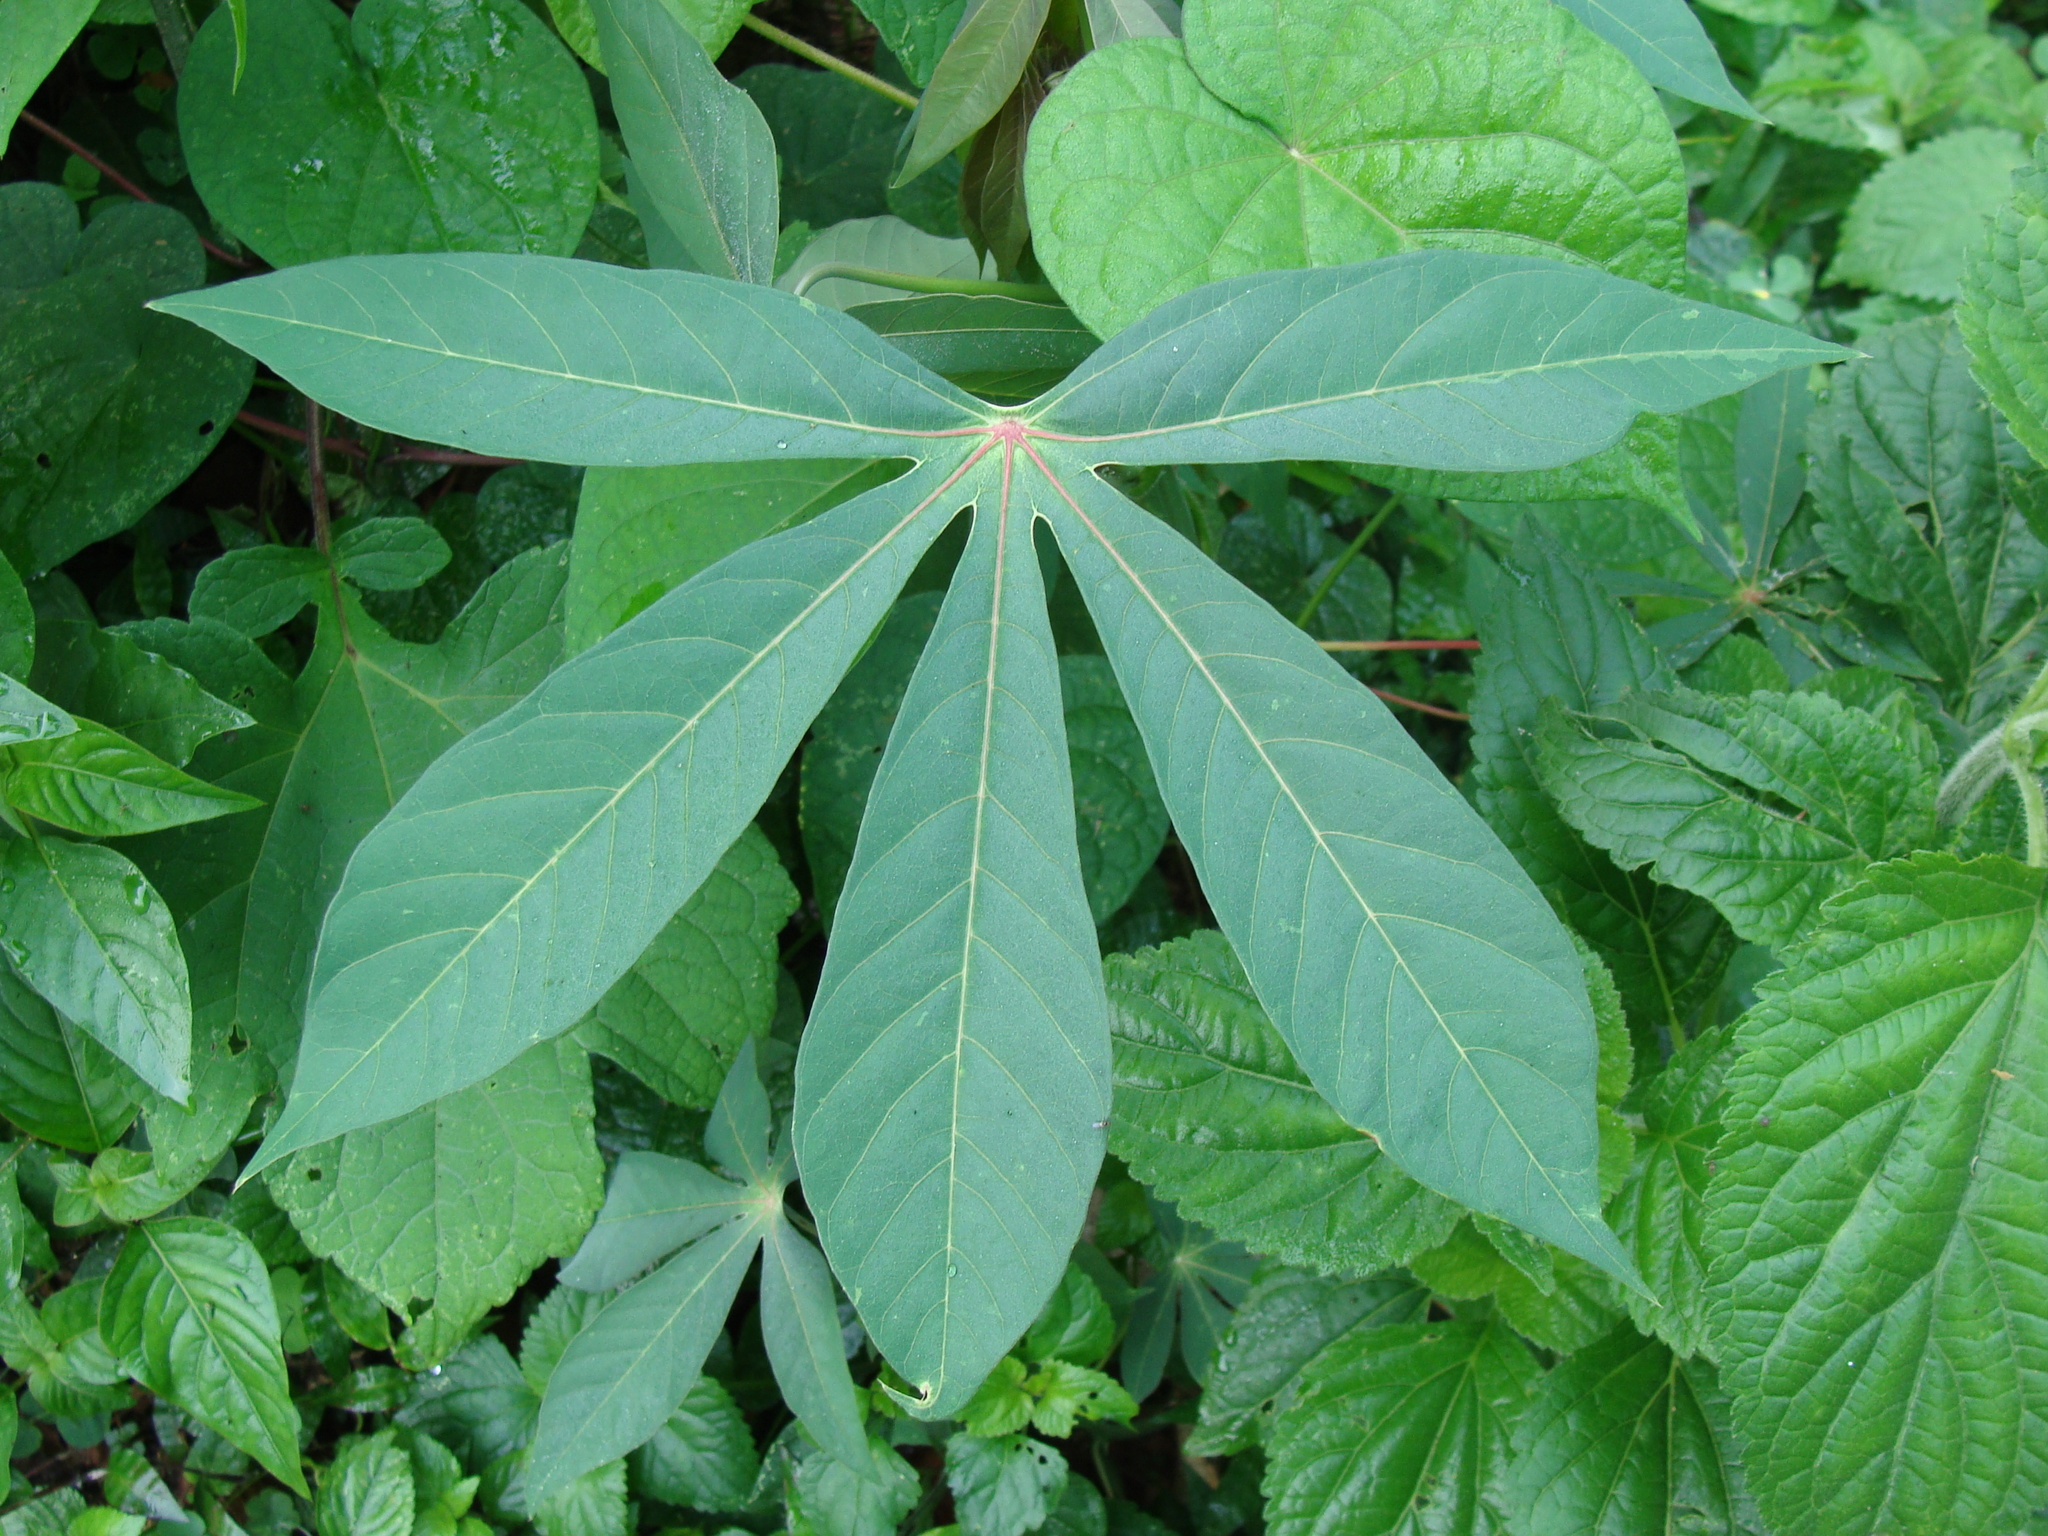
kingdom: Plantae
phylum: Tracheophyta
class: Magnoliopsida
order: Malpighiales
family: Euphorbiaceae
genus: Manihot
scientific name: Manihot esculenta
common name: Cassava
